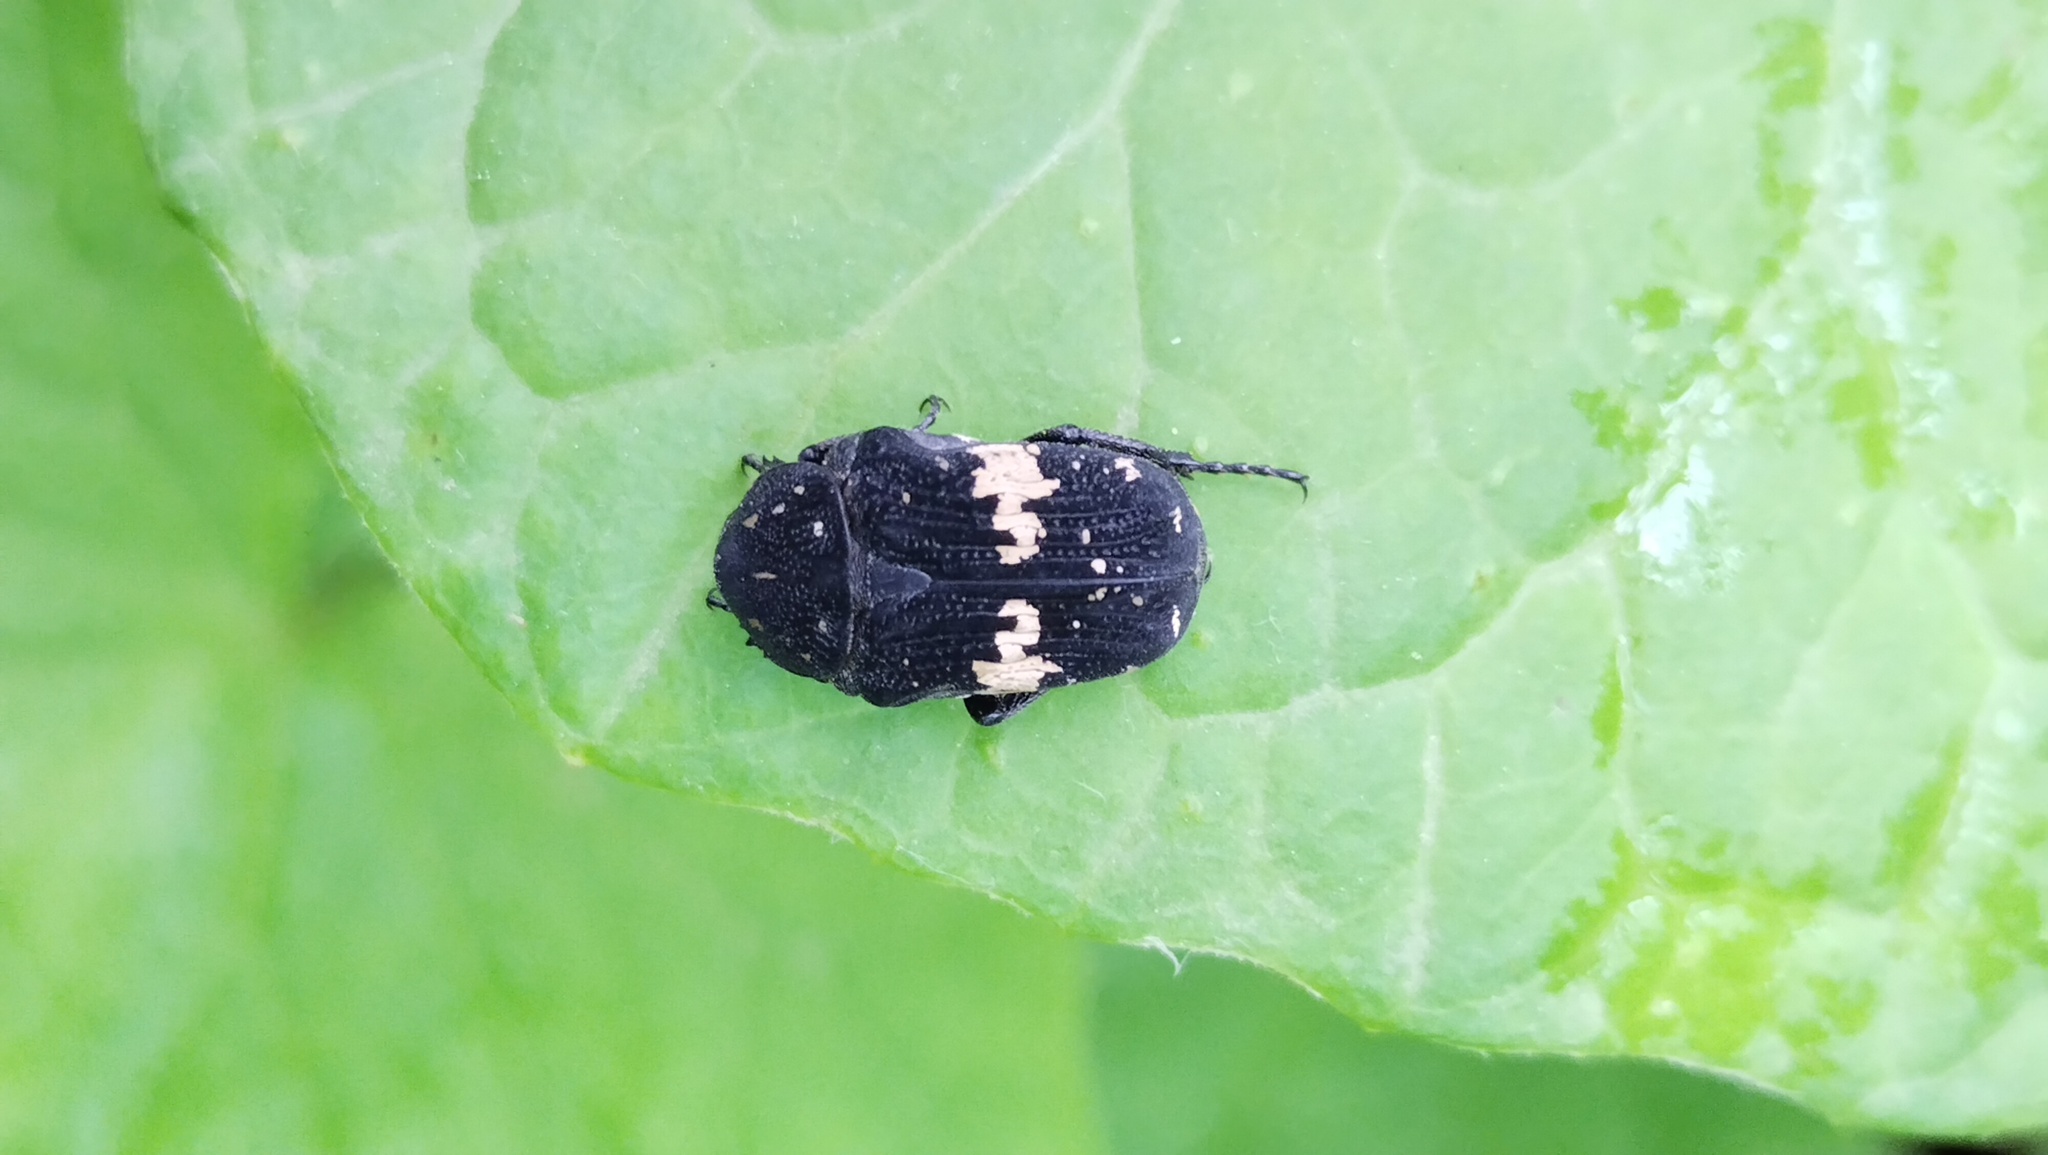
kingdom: Animalia
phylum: Arthropoda
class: Insecta
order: Coleoptera
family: Scarabaeidae
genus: Glycyphana
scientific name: Glycyphana fulvistemma
